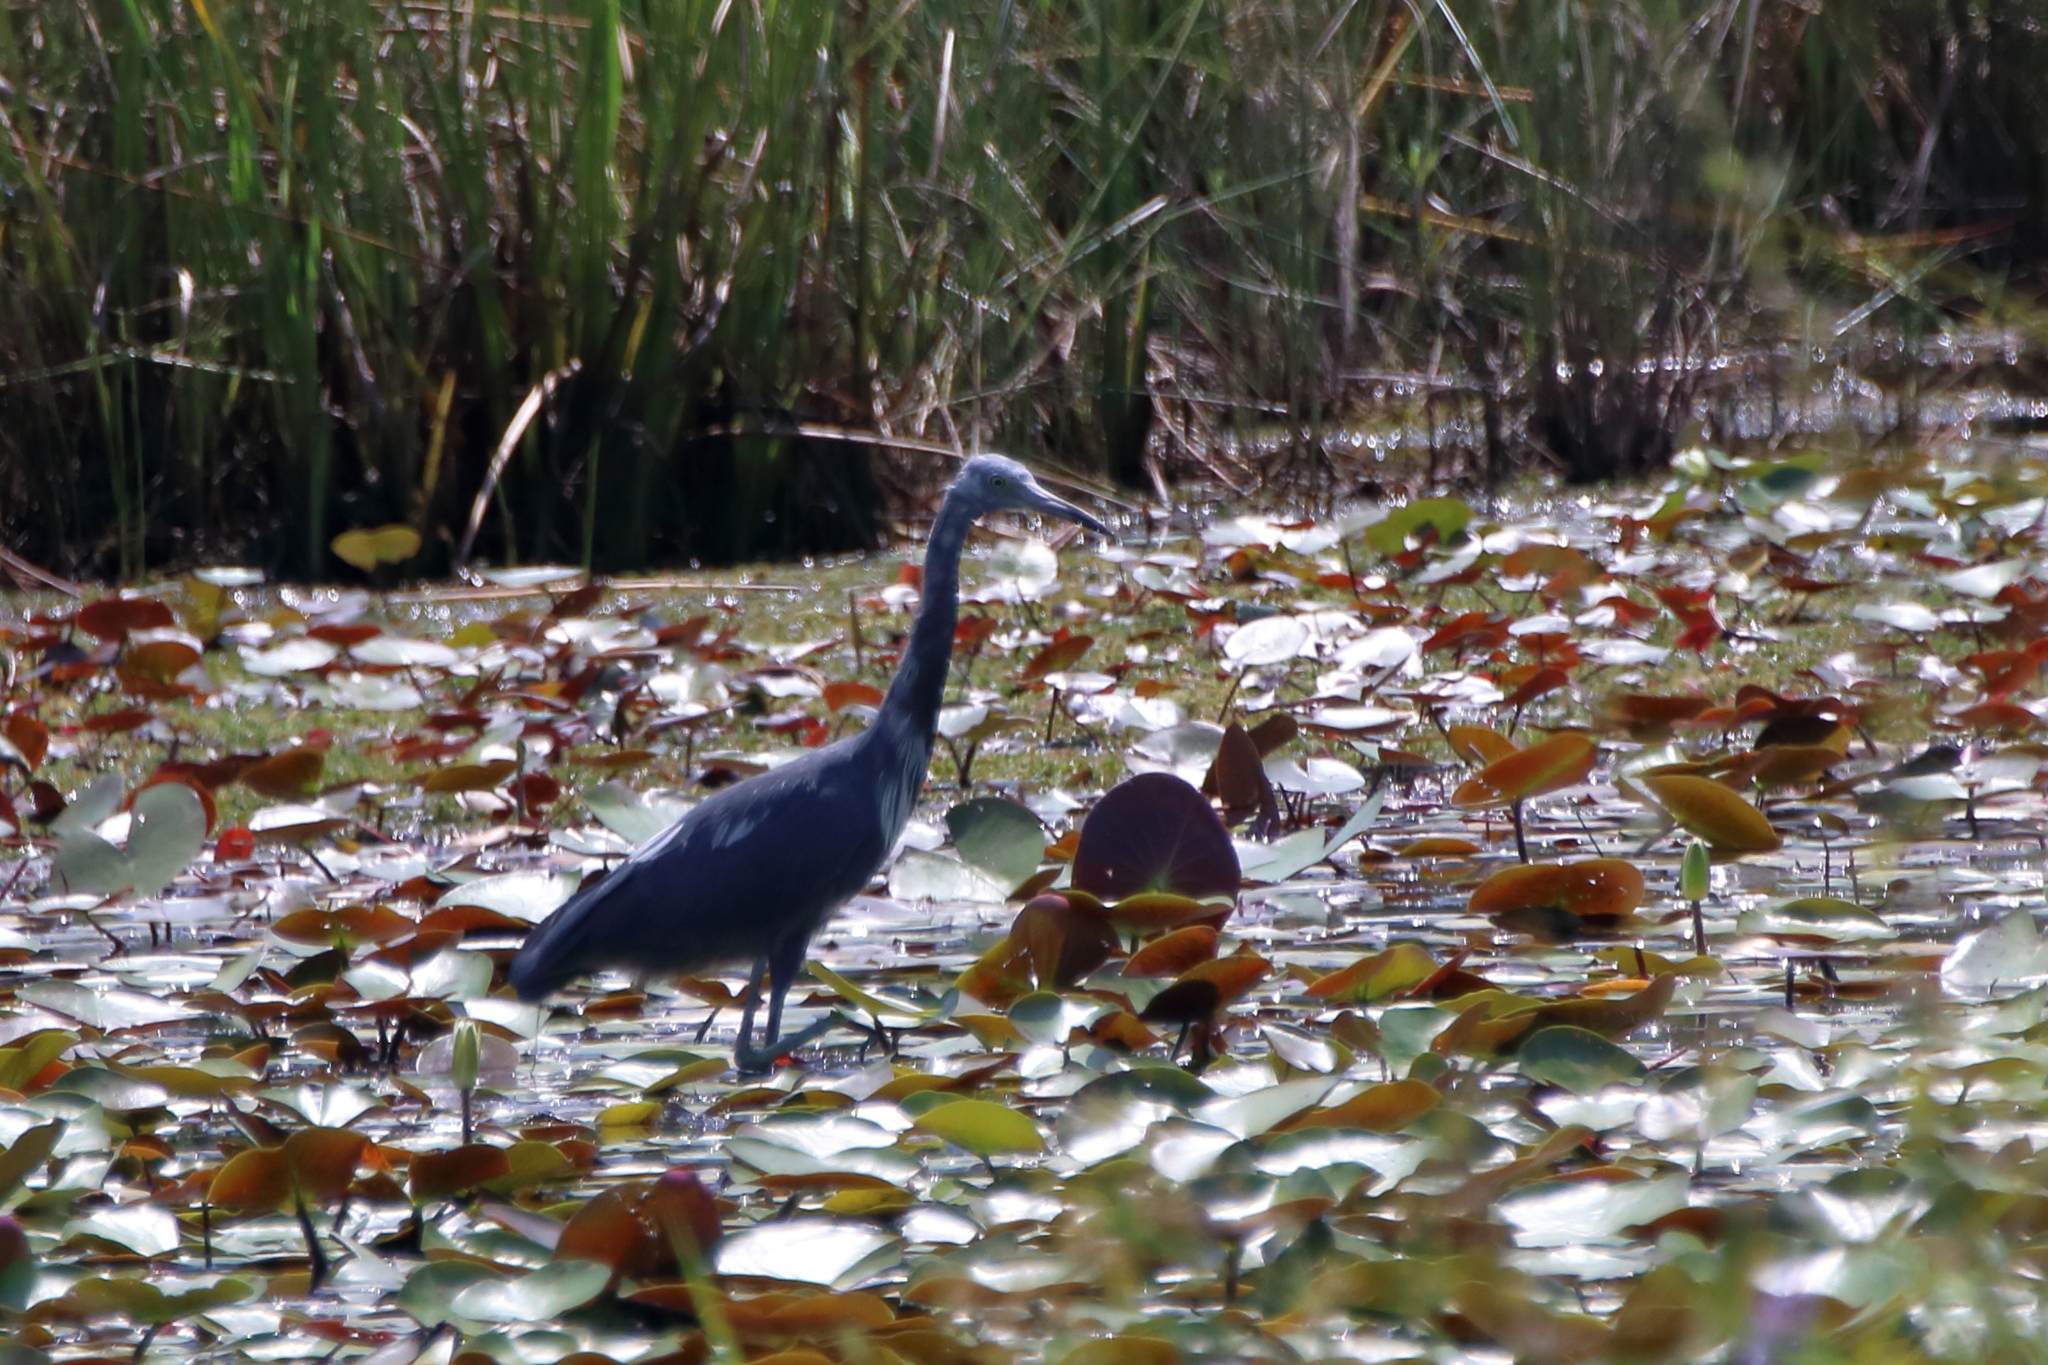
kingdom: Animalia
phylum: Chordata
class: Aves
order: Pelecaniformes
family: Ardeidae
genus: Egretta
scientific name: Egretta caerulea
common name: Little blue heron
